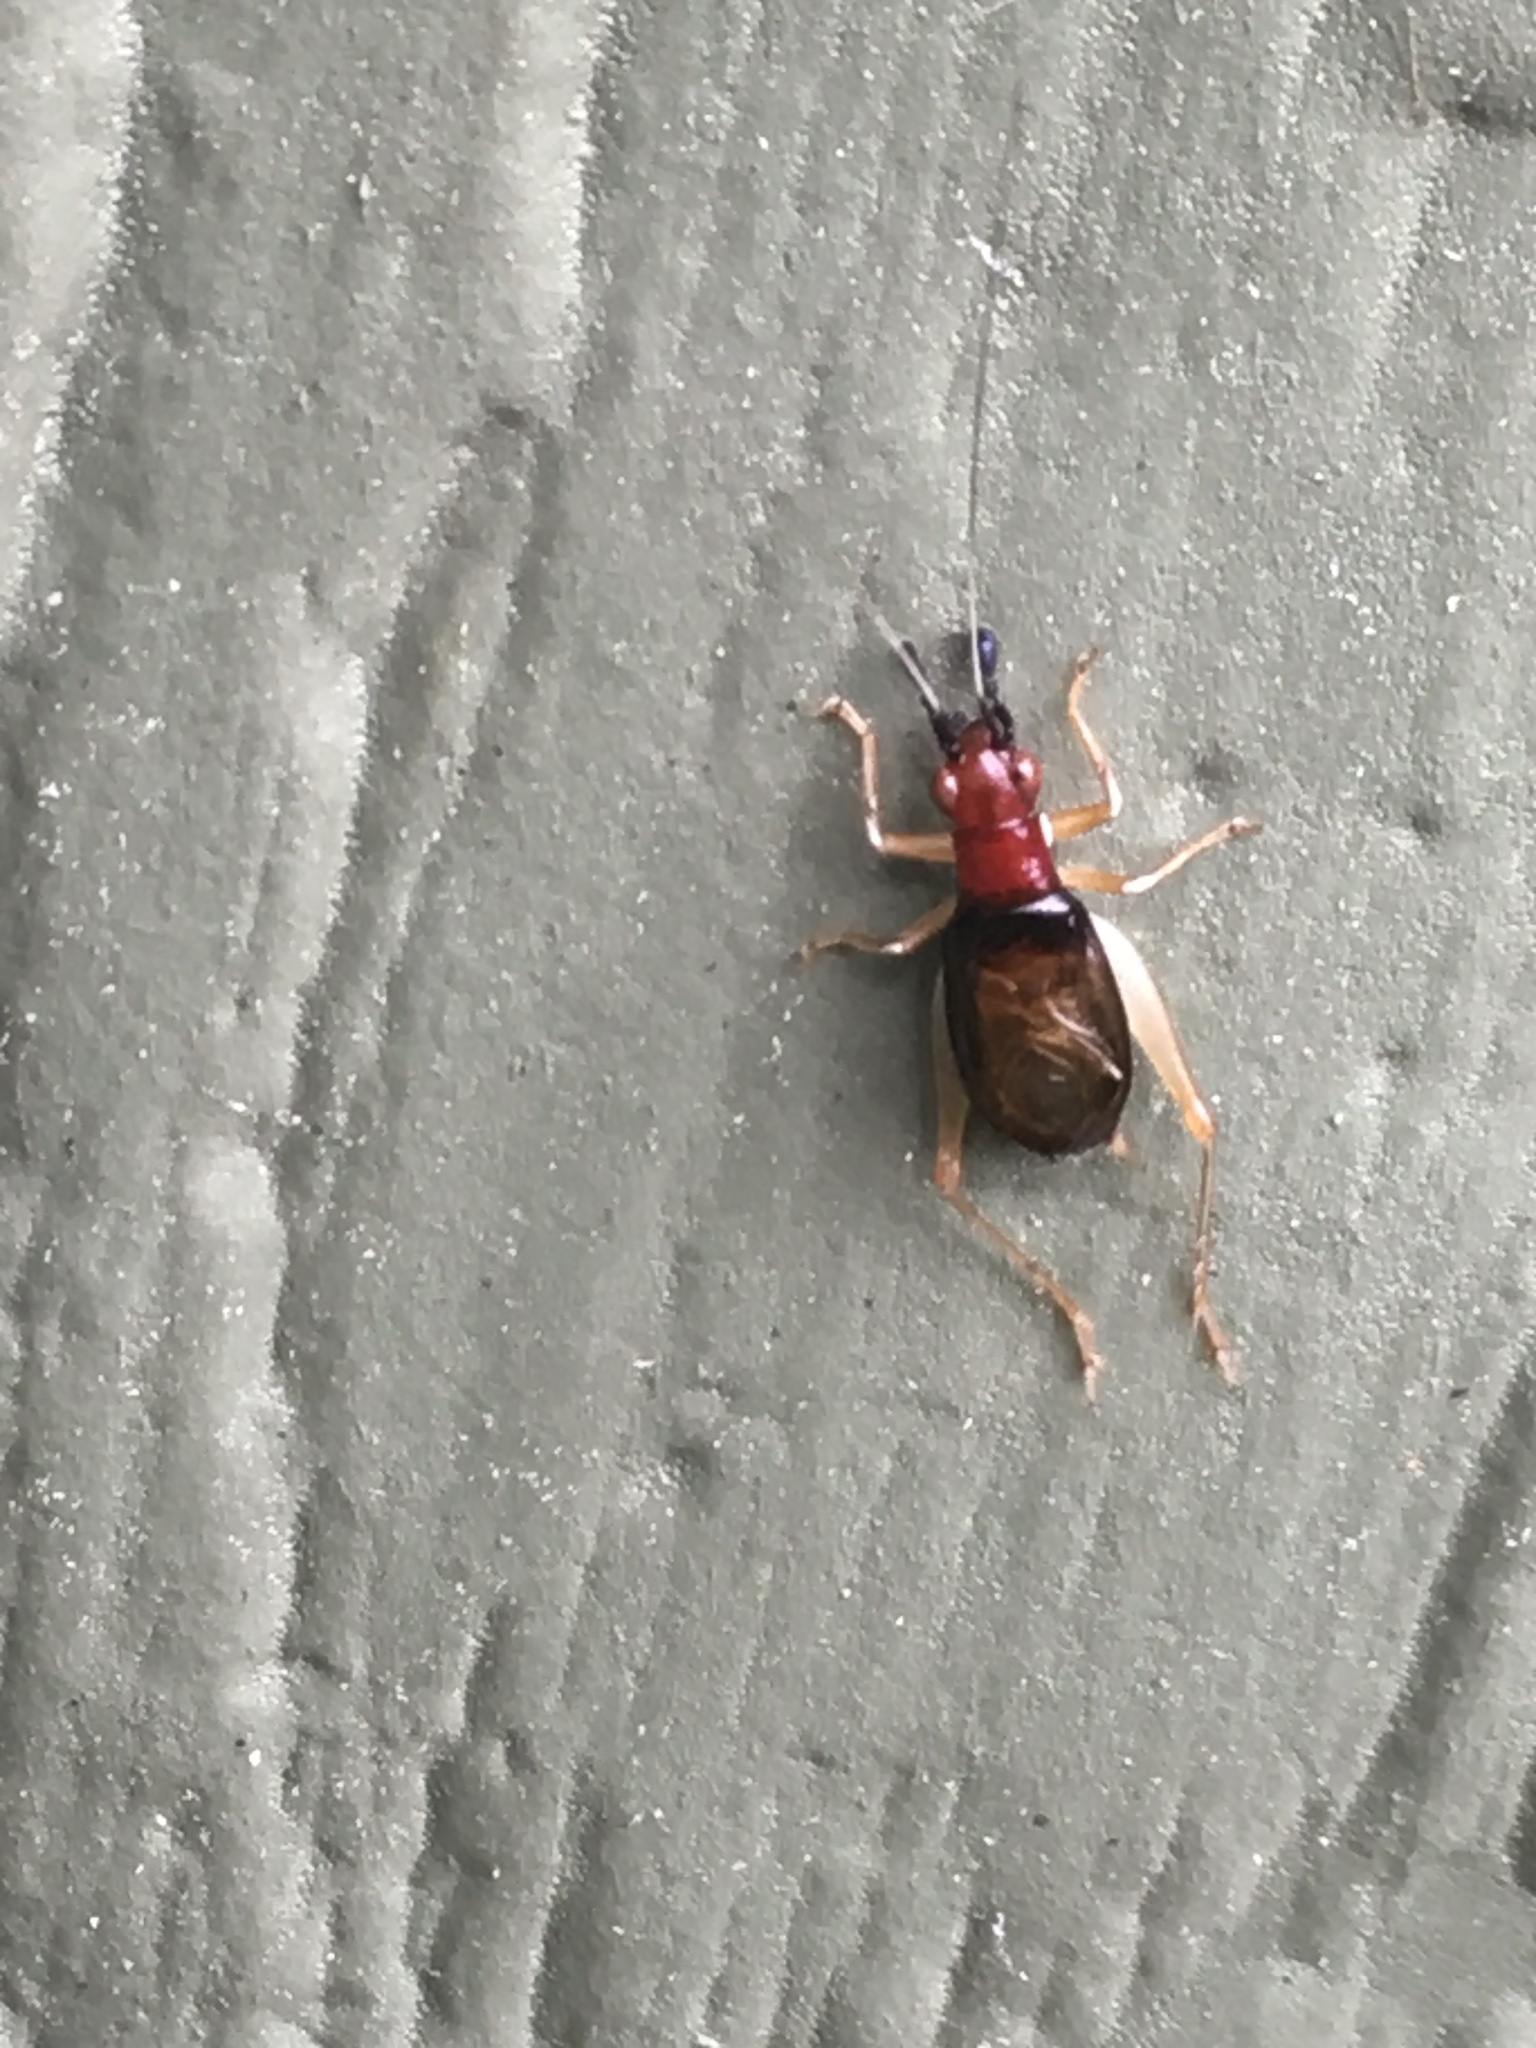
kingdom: Animalia
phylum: Arthropoda
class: Insecta
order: Orthoptera
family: Trigonidiidae
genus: Phyllopalpus
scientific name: Phyllopalpus pulchellus
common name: Handsome trig
